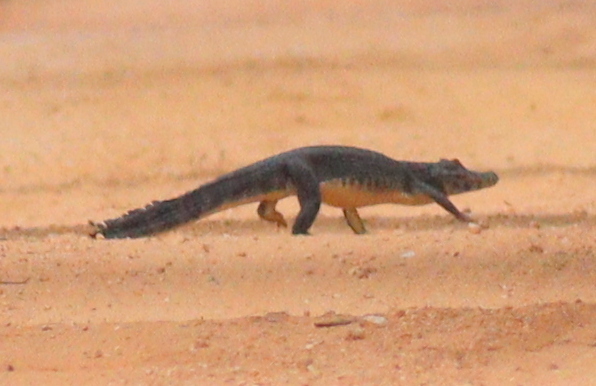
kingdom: Animalia
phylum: Chordata
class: Crocodylia
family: Alligatoridae
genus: Caiman
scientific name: Caiman yacare
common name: Yacare caiman
